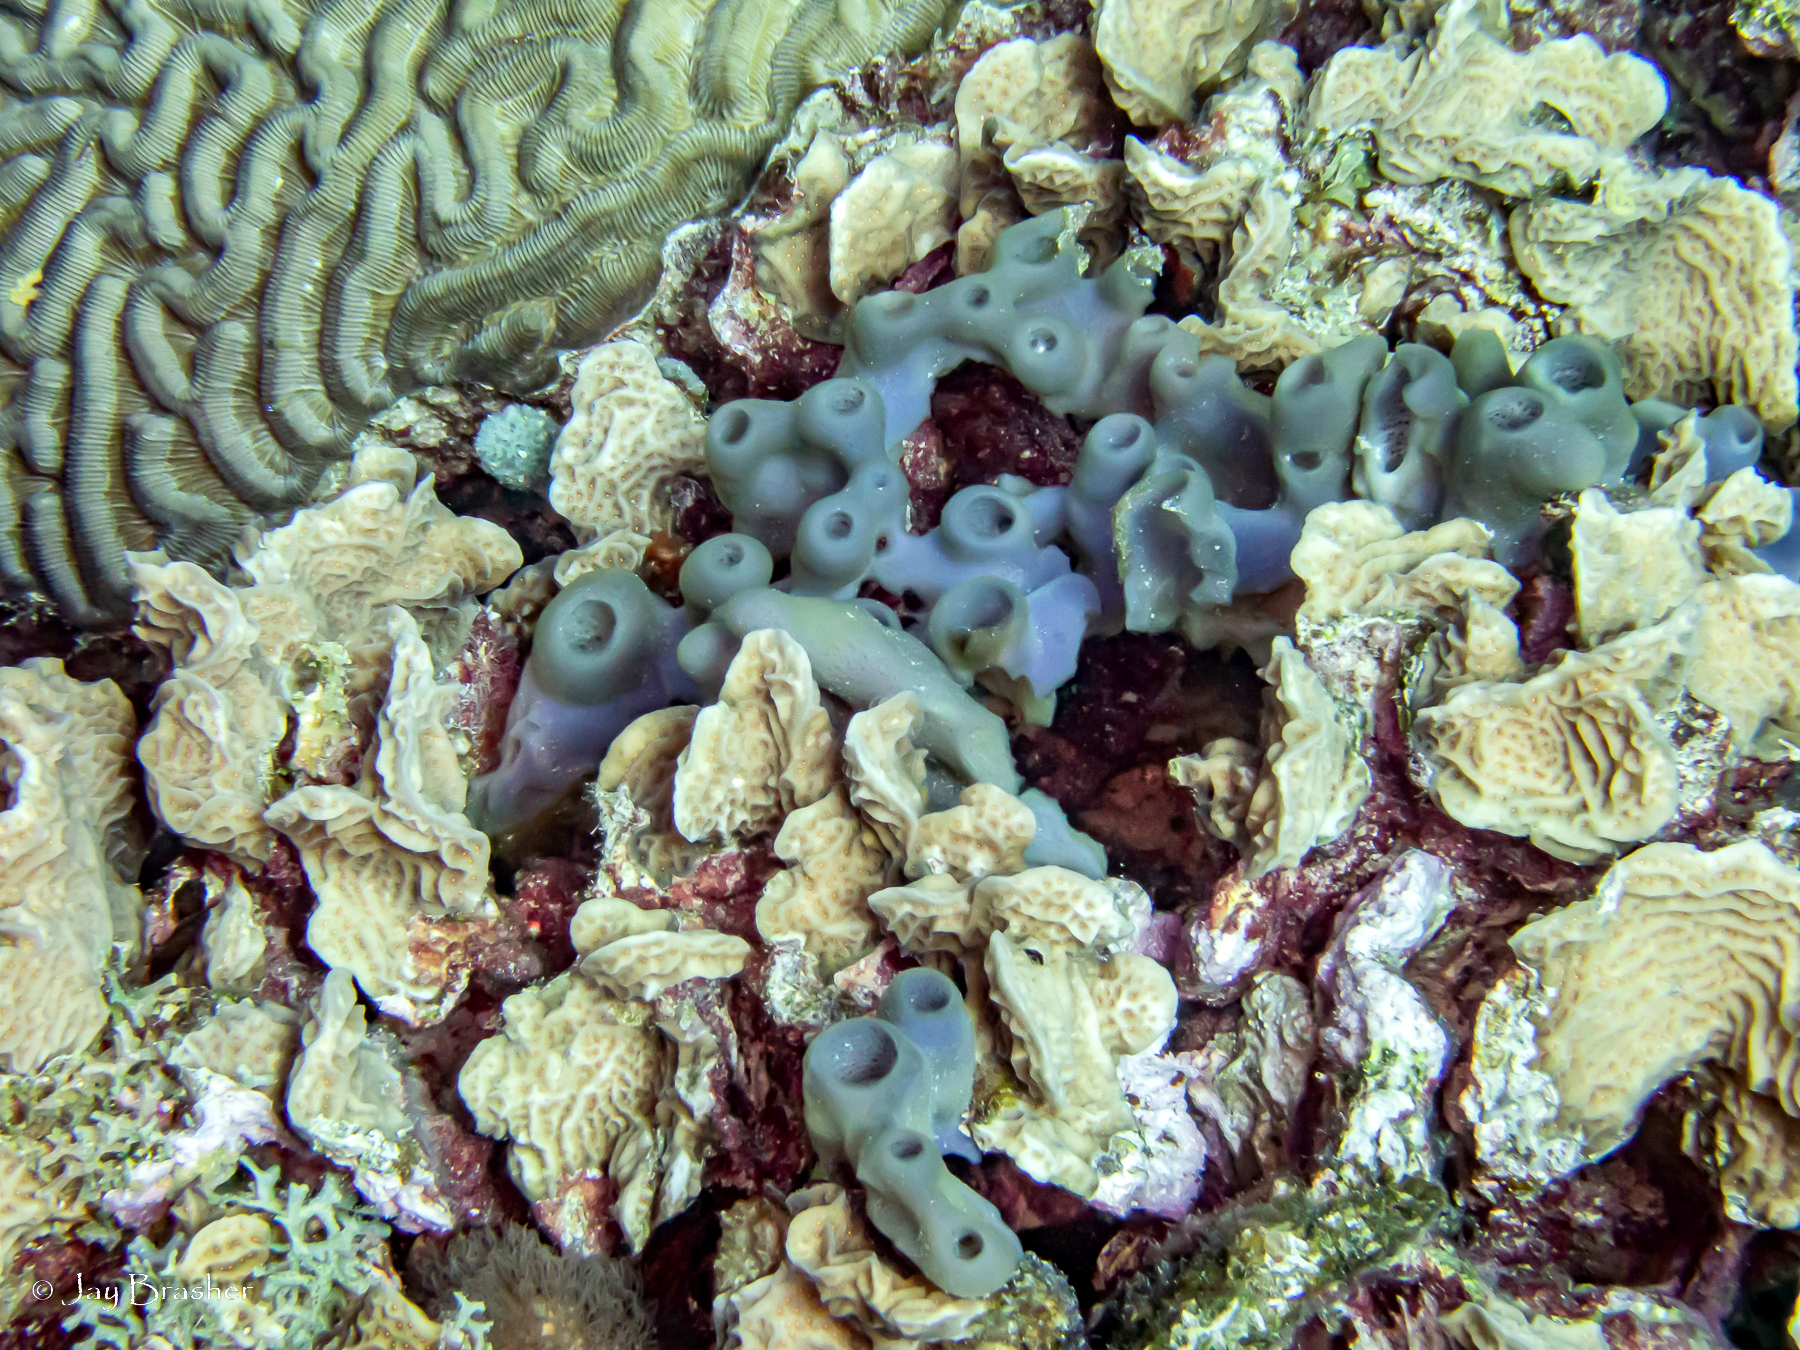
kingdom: Animalia
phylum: Cnidaria
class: Anthozoa
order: Scleractinia
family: Faviidae
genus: Colpophyllia
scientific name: Colpophyllia natans
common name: Boulder brain coral
